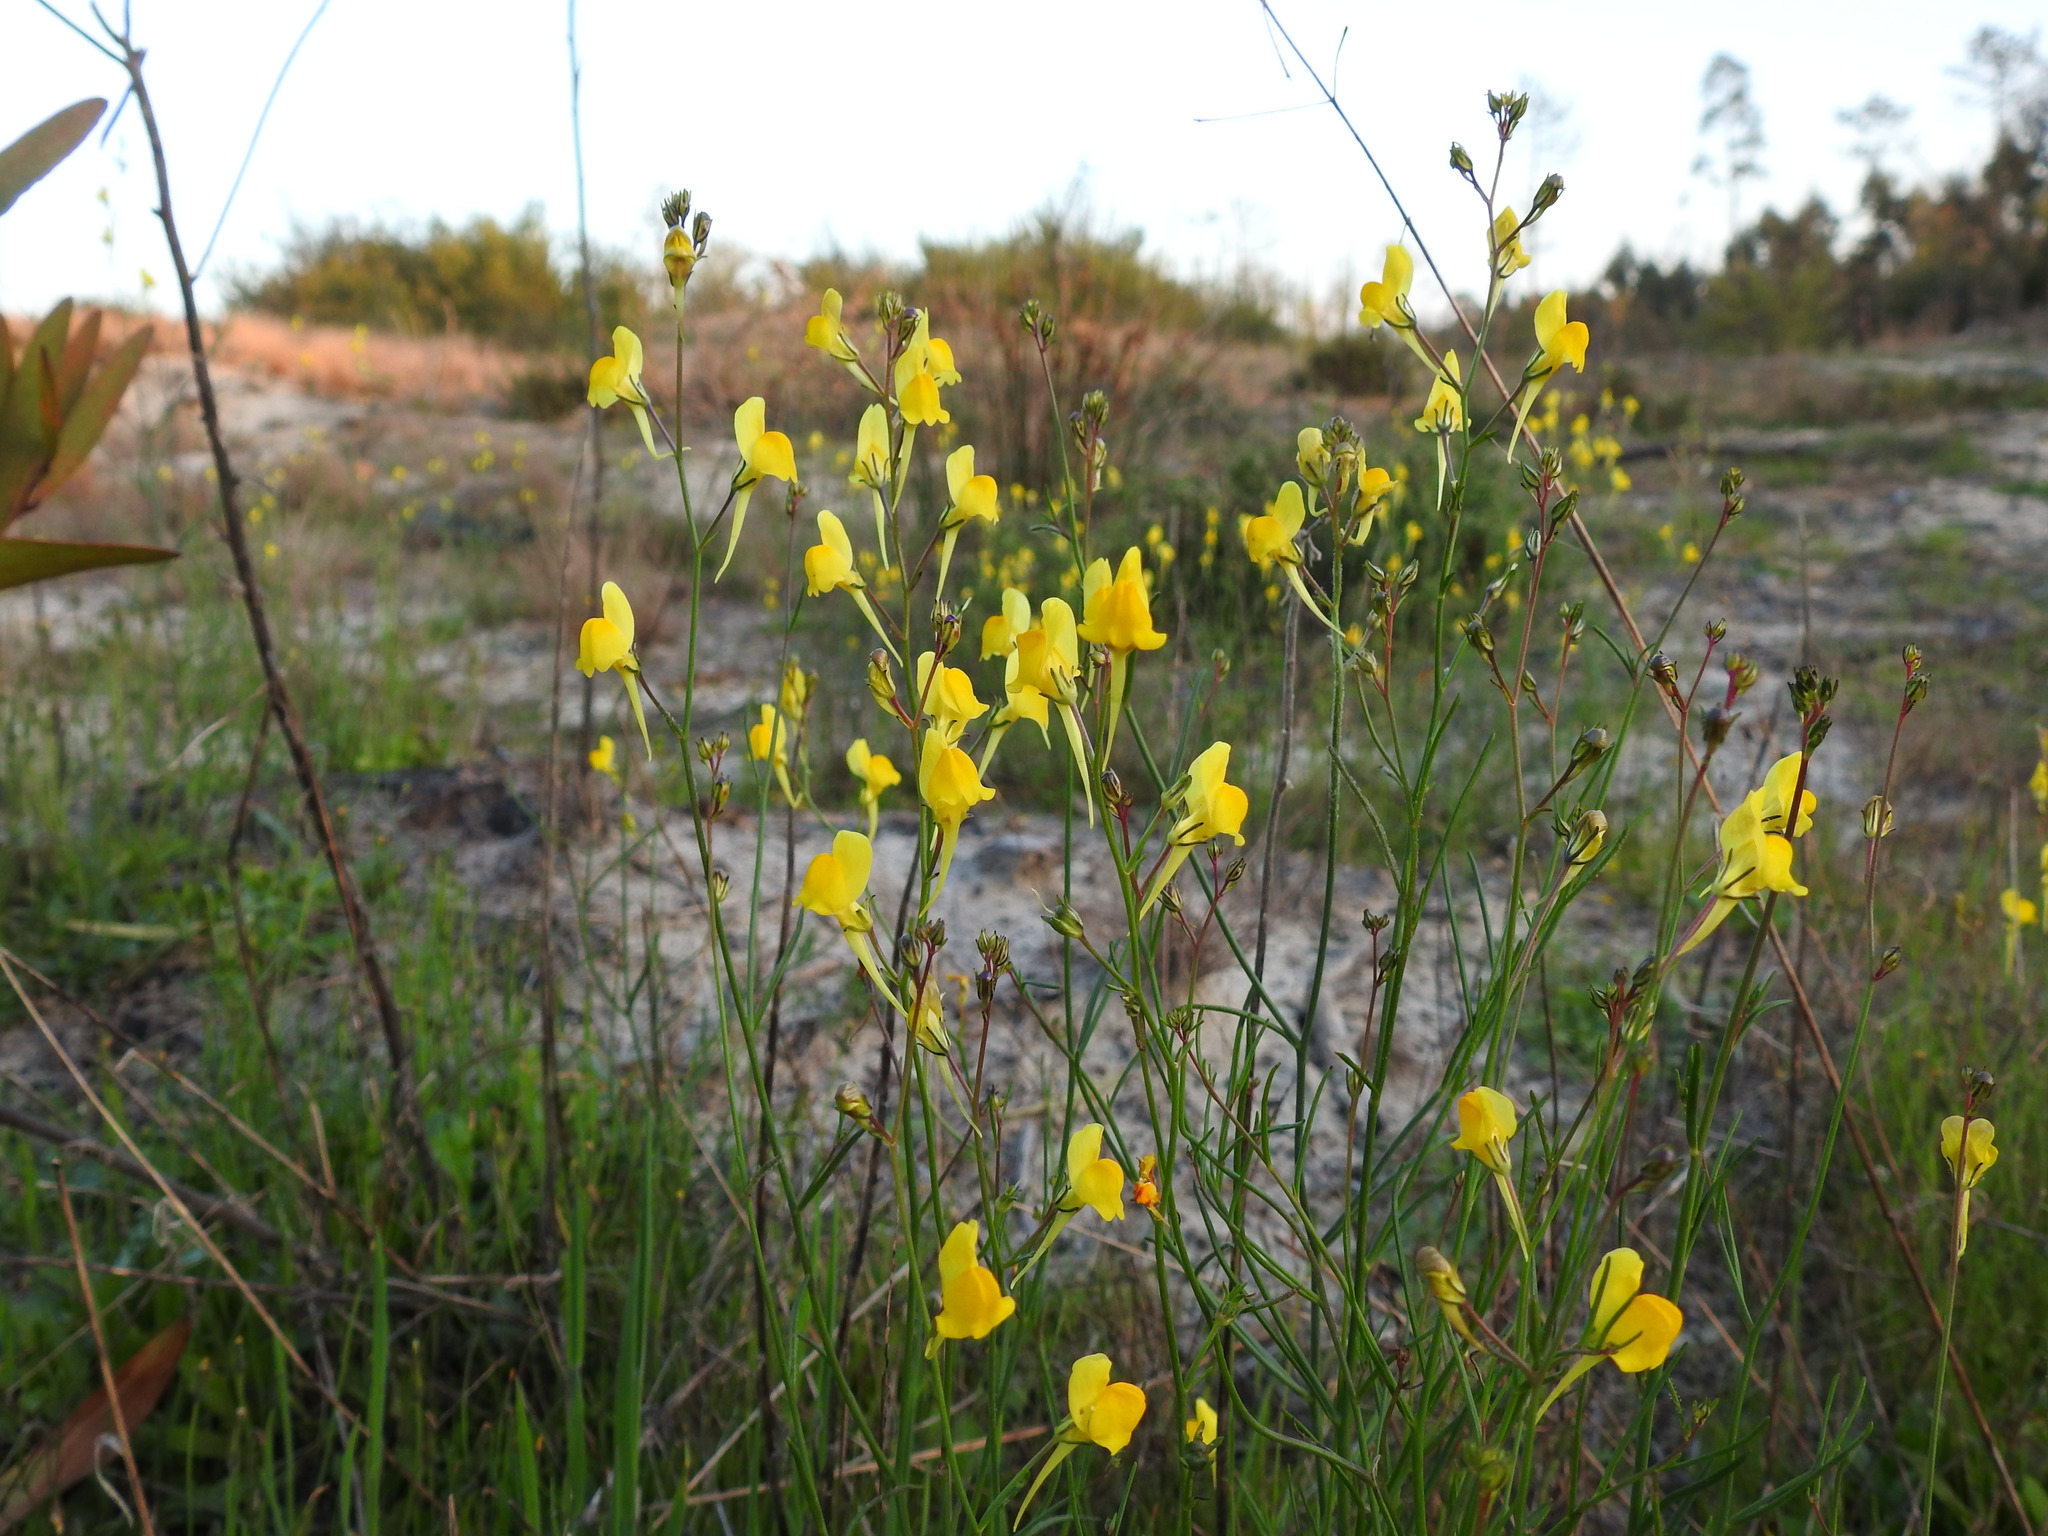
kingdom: Plantae
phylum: Tracheophyta
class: Magnoliopsida
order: Lamiales
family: Plantaginaceae
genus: Linaria
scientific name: Linaria spartea
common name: Ballast toadflax
